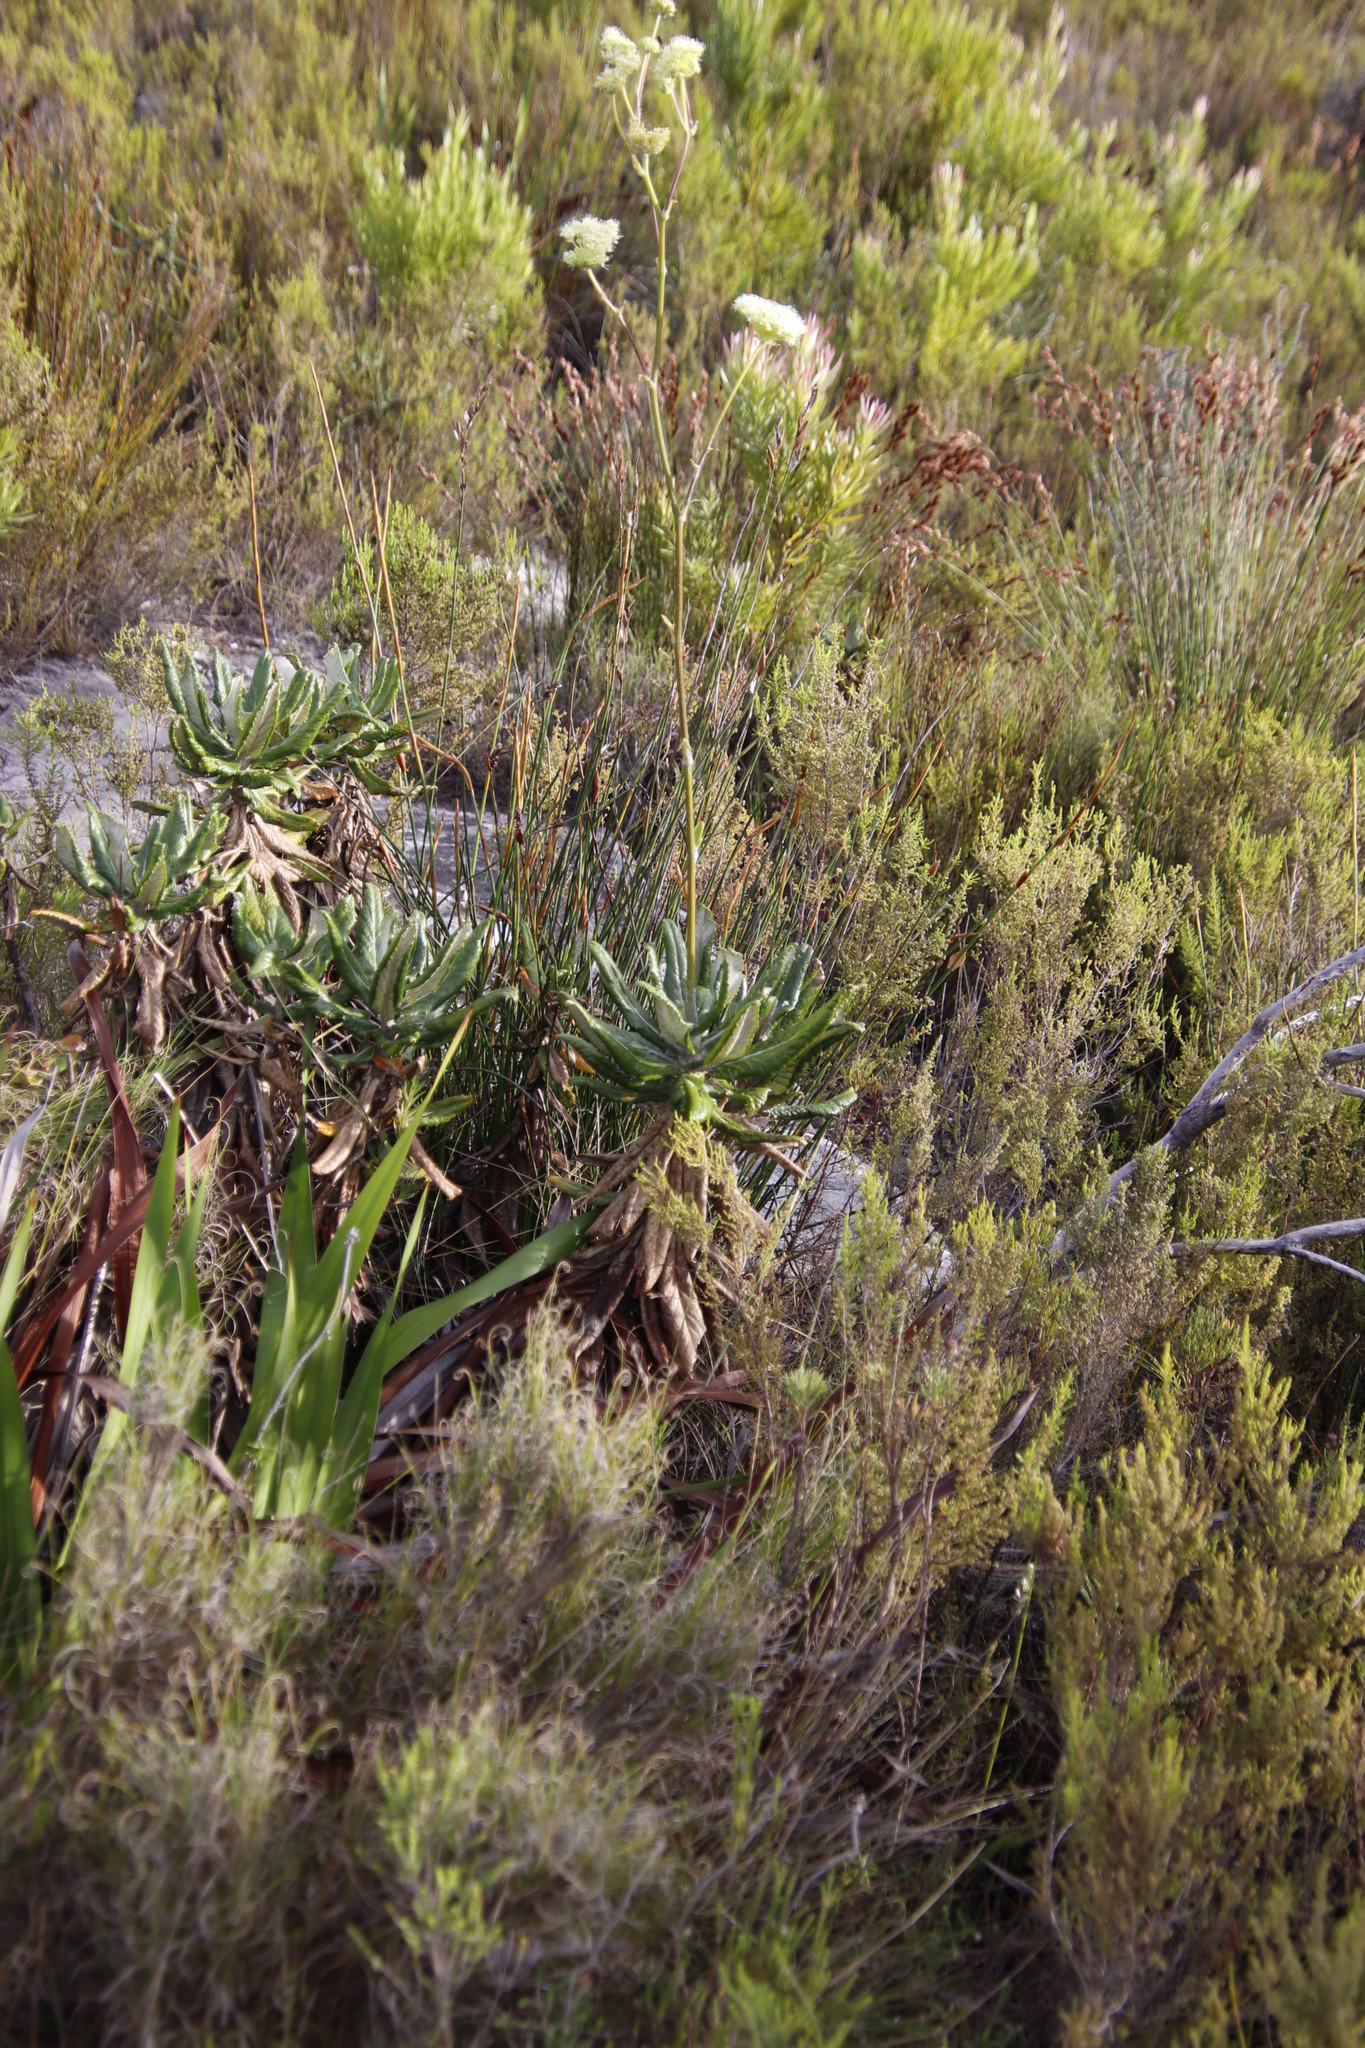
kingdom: Plantae
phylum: Tracheophyta
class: Magnoliopsida
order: Apiales
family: Apiaceae
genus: Hermas
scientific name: Hermas villosa
